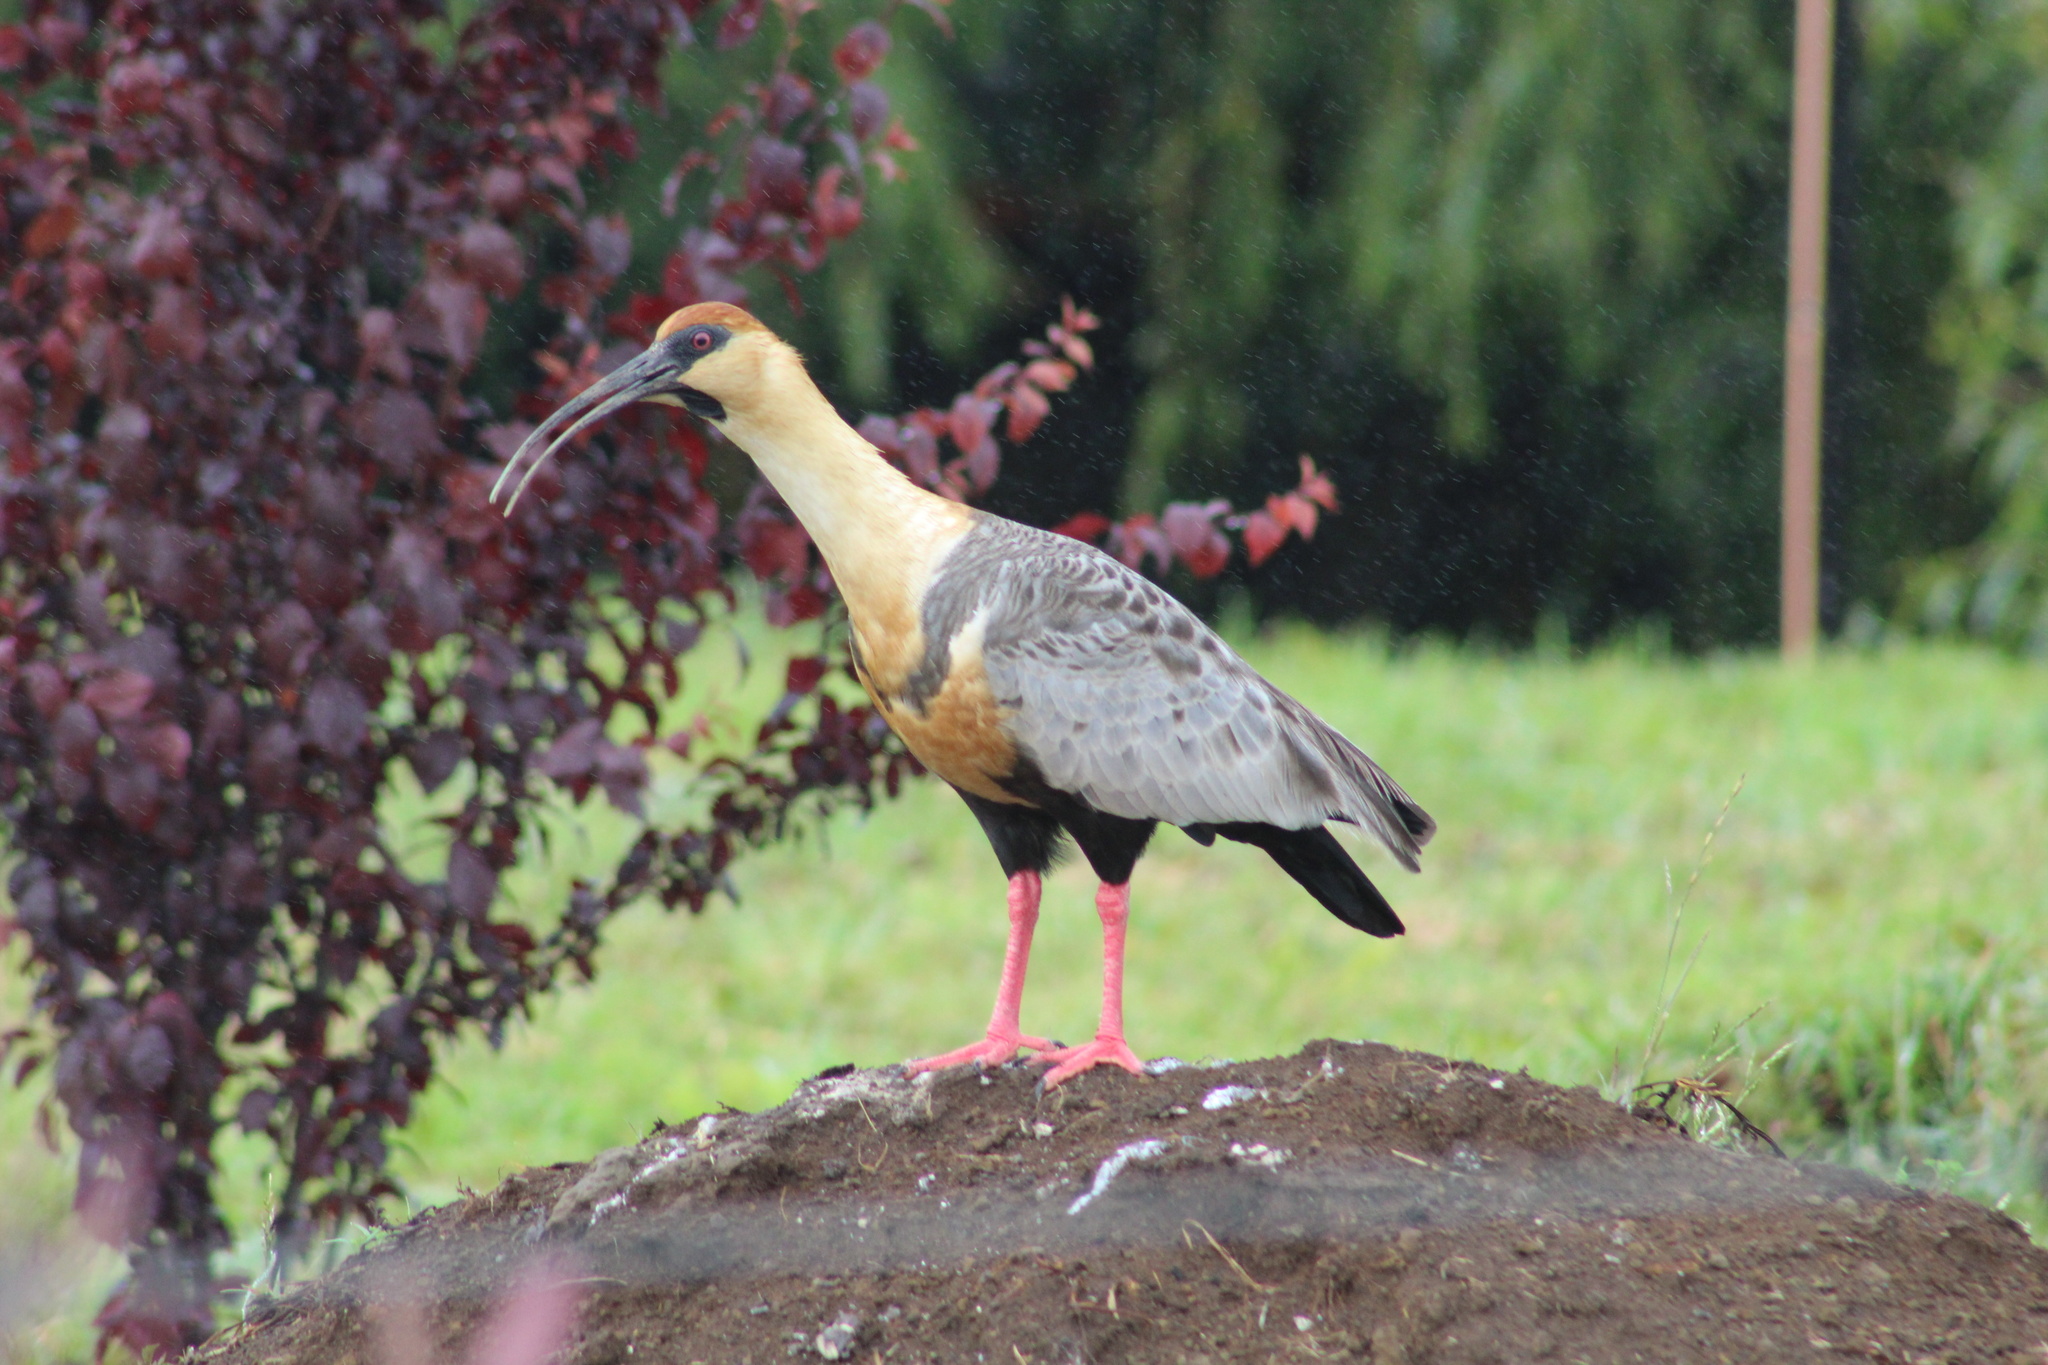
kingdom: Animalia
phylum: Chordata
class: Aves
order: Pelecaniformes
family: Threskiornithidae
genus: Theristicus
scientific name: Theristicus melanopis
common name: Black-faced ibis
